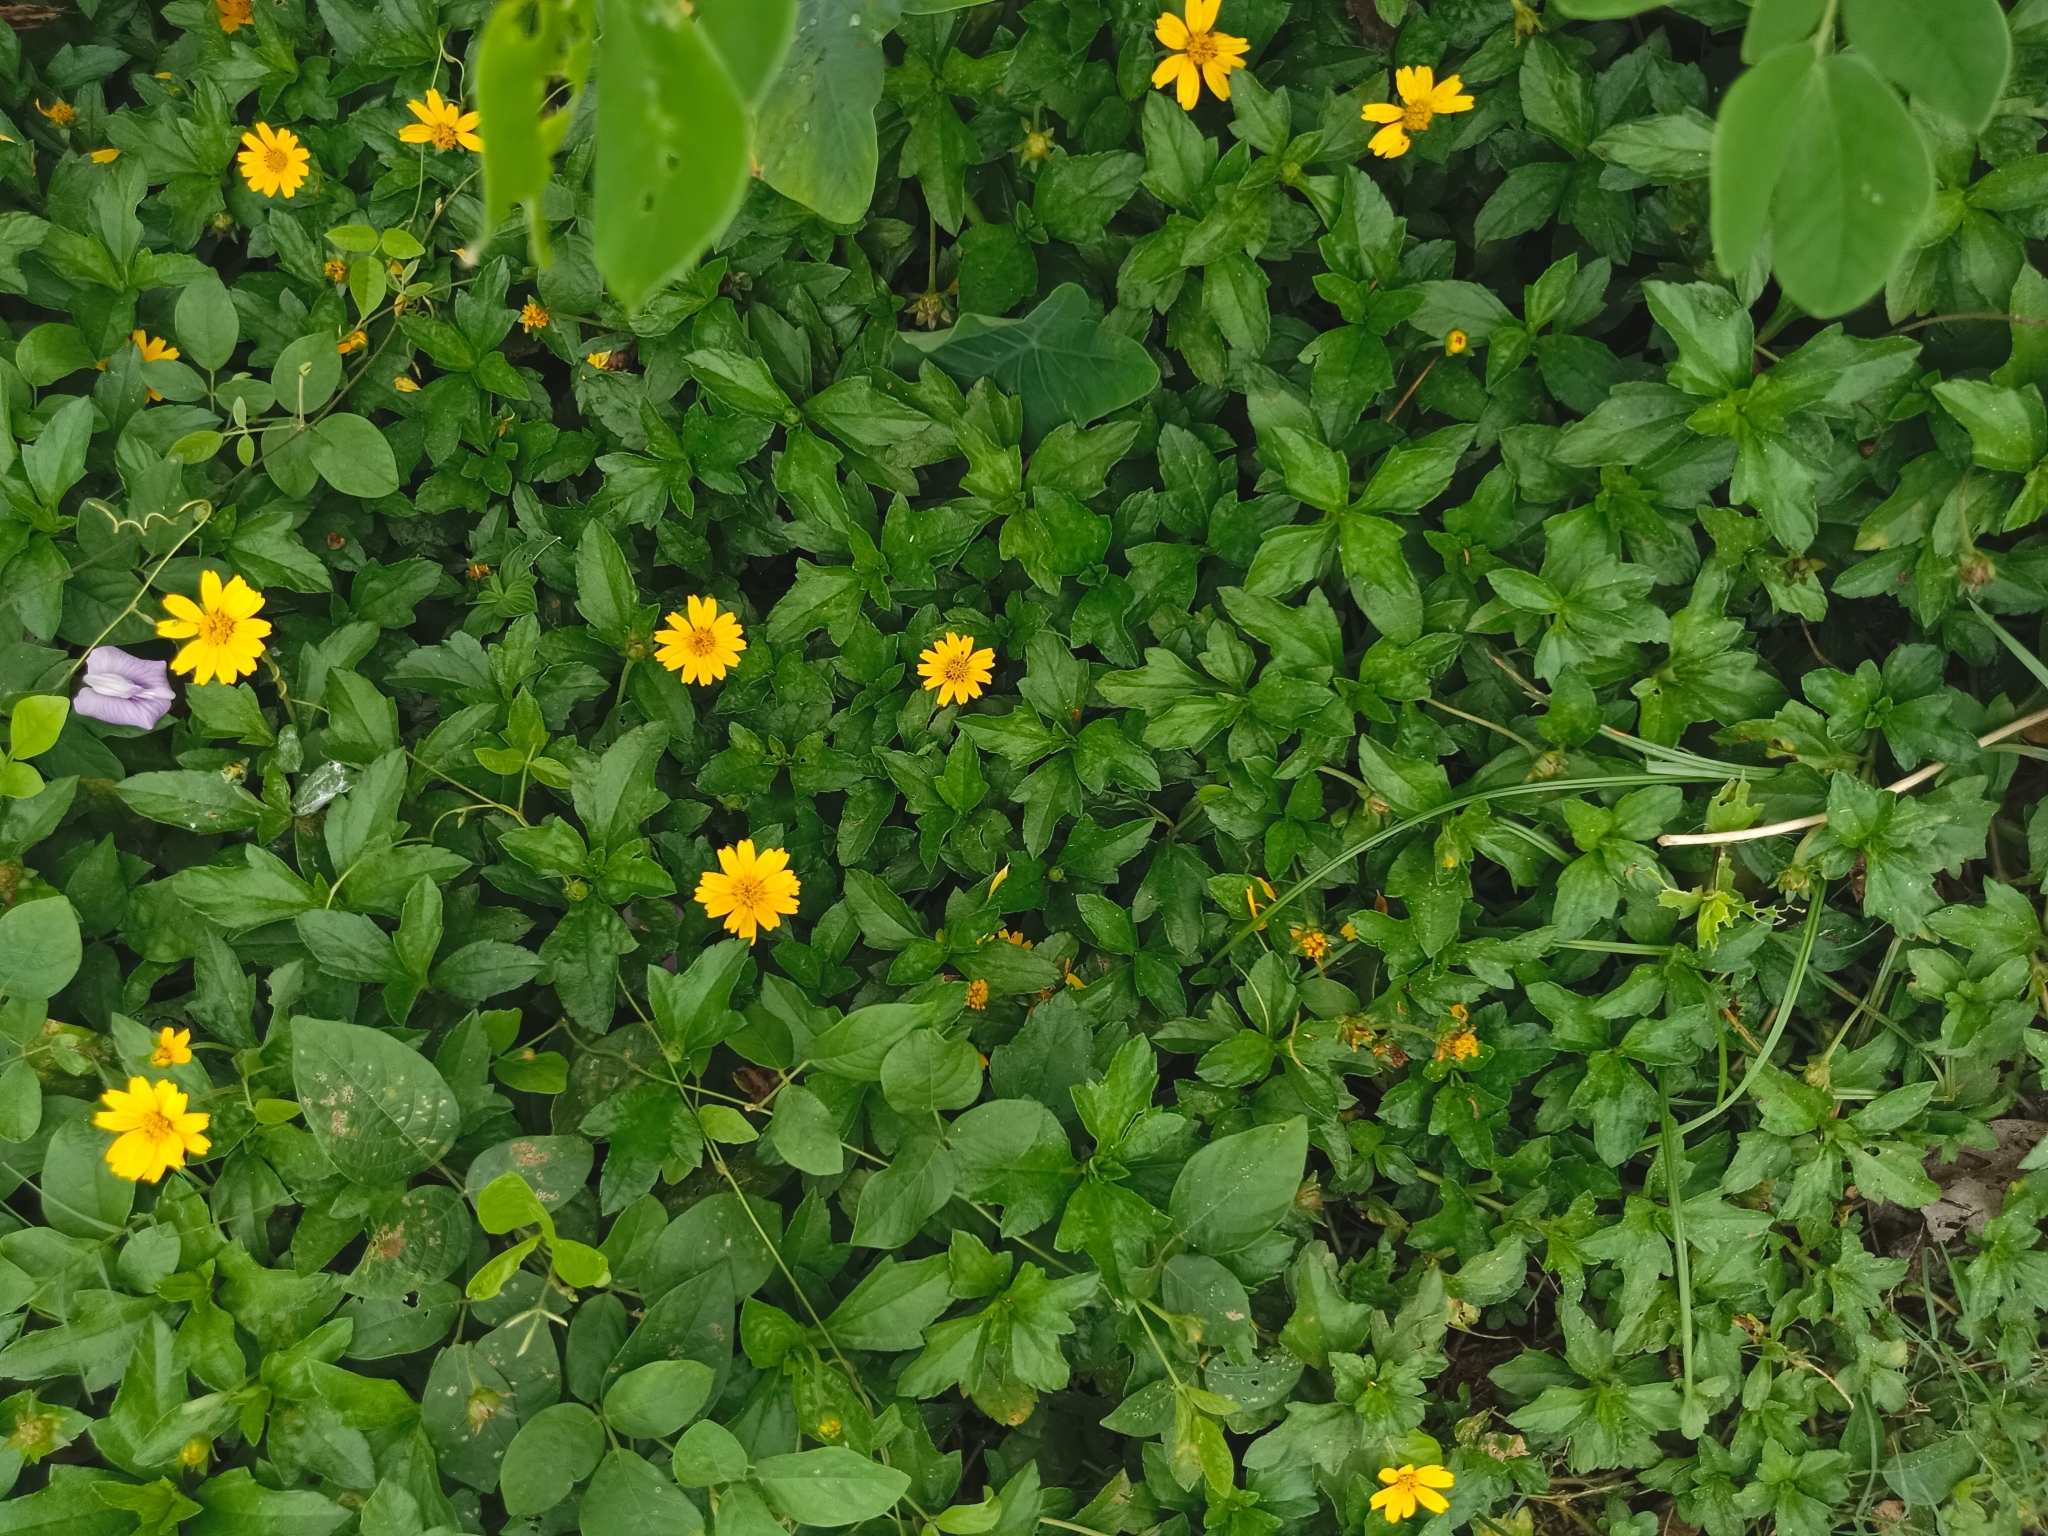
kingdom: Plantae
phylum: Tracheophyta
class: Magnoliopsida
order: Asterales
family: Asteraceae
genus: Sphagneticola
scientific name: Sphagneticola trilobata
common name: Bay biscayne creeping-oxeye
